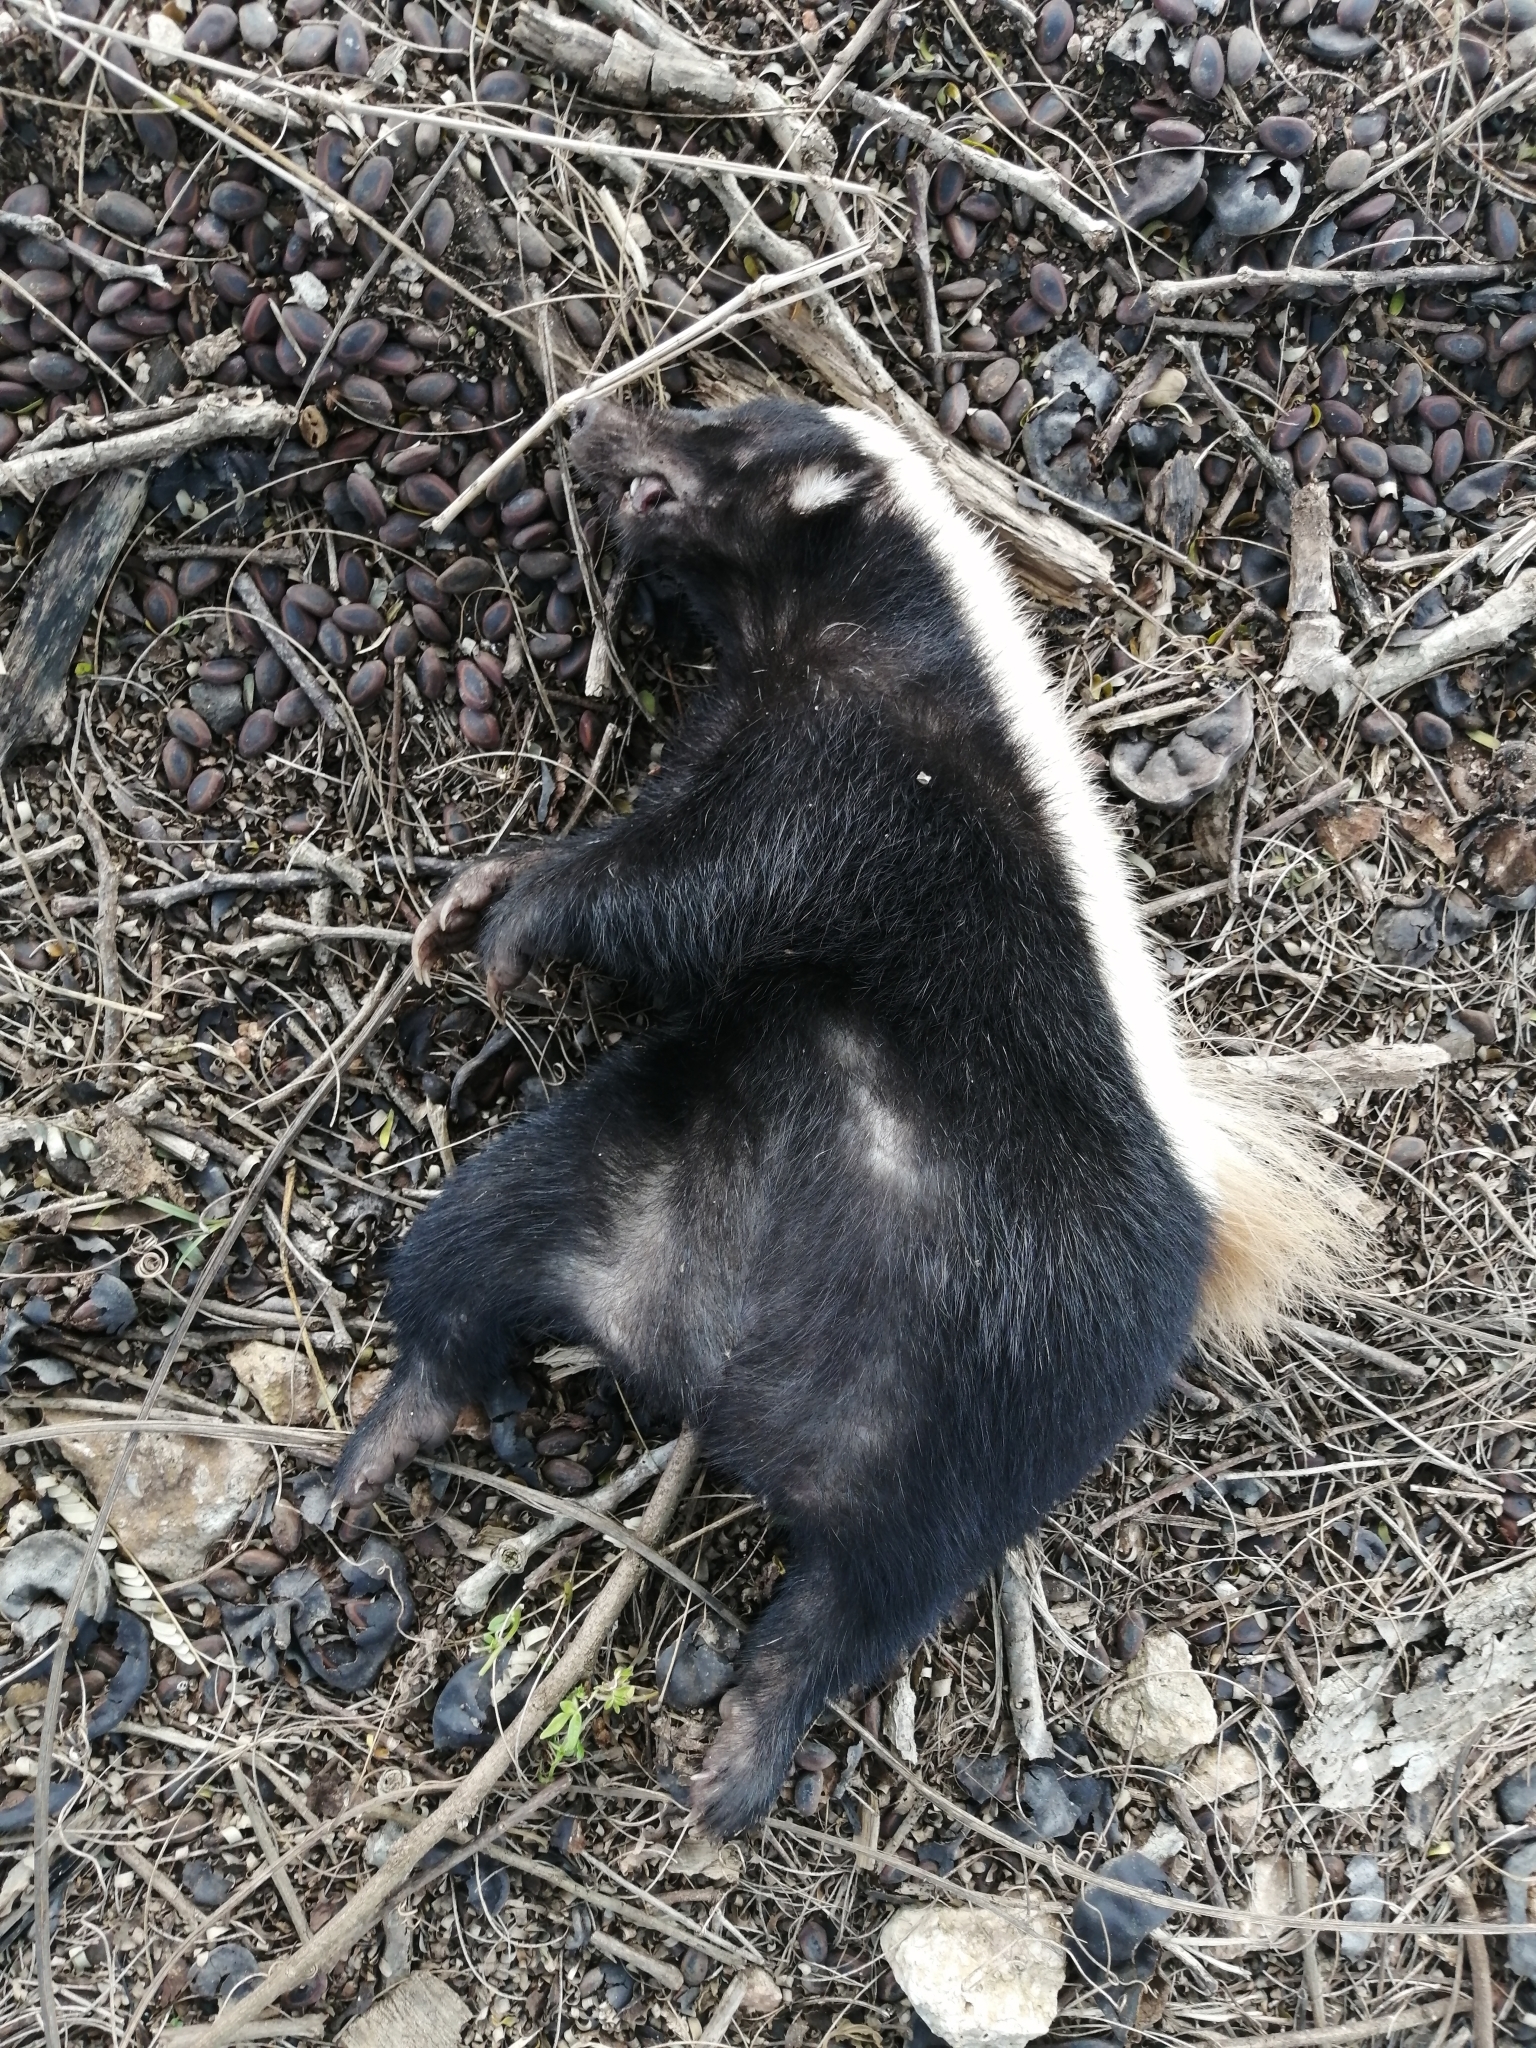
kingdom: Animalia
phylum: Chordata
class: Mammalia
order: Carnivora
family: Mephitidae
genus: Conepatus
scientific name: Conepatus semistriatus
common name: Striped hog-nosed skunk
